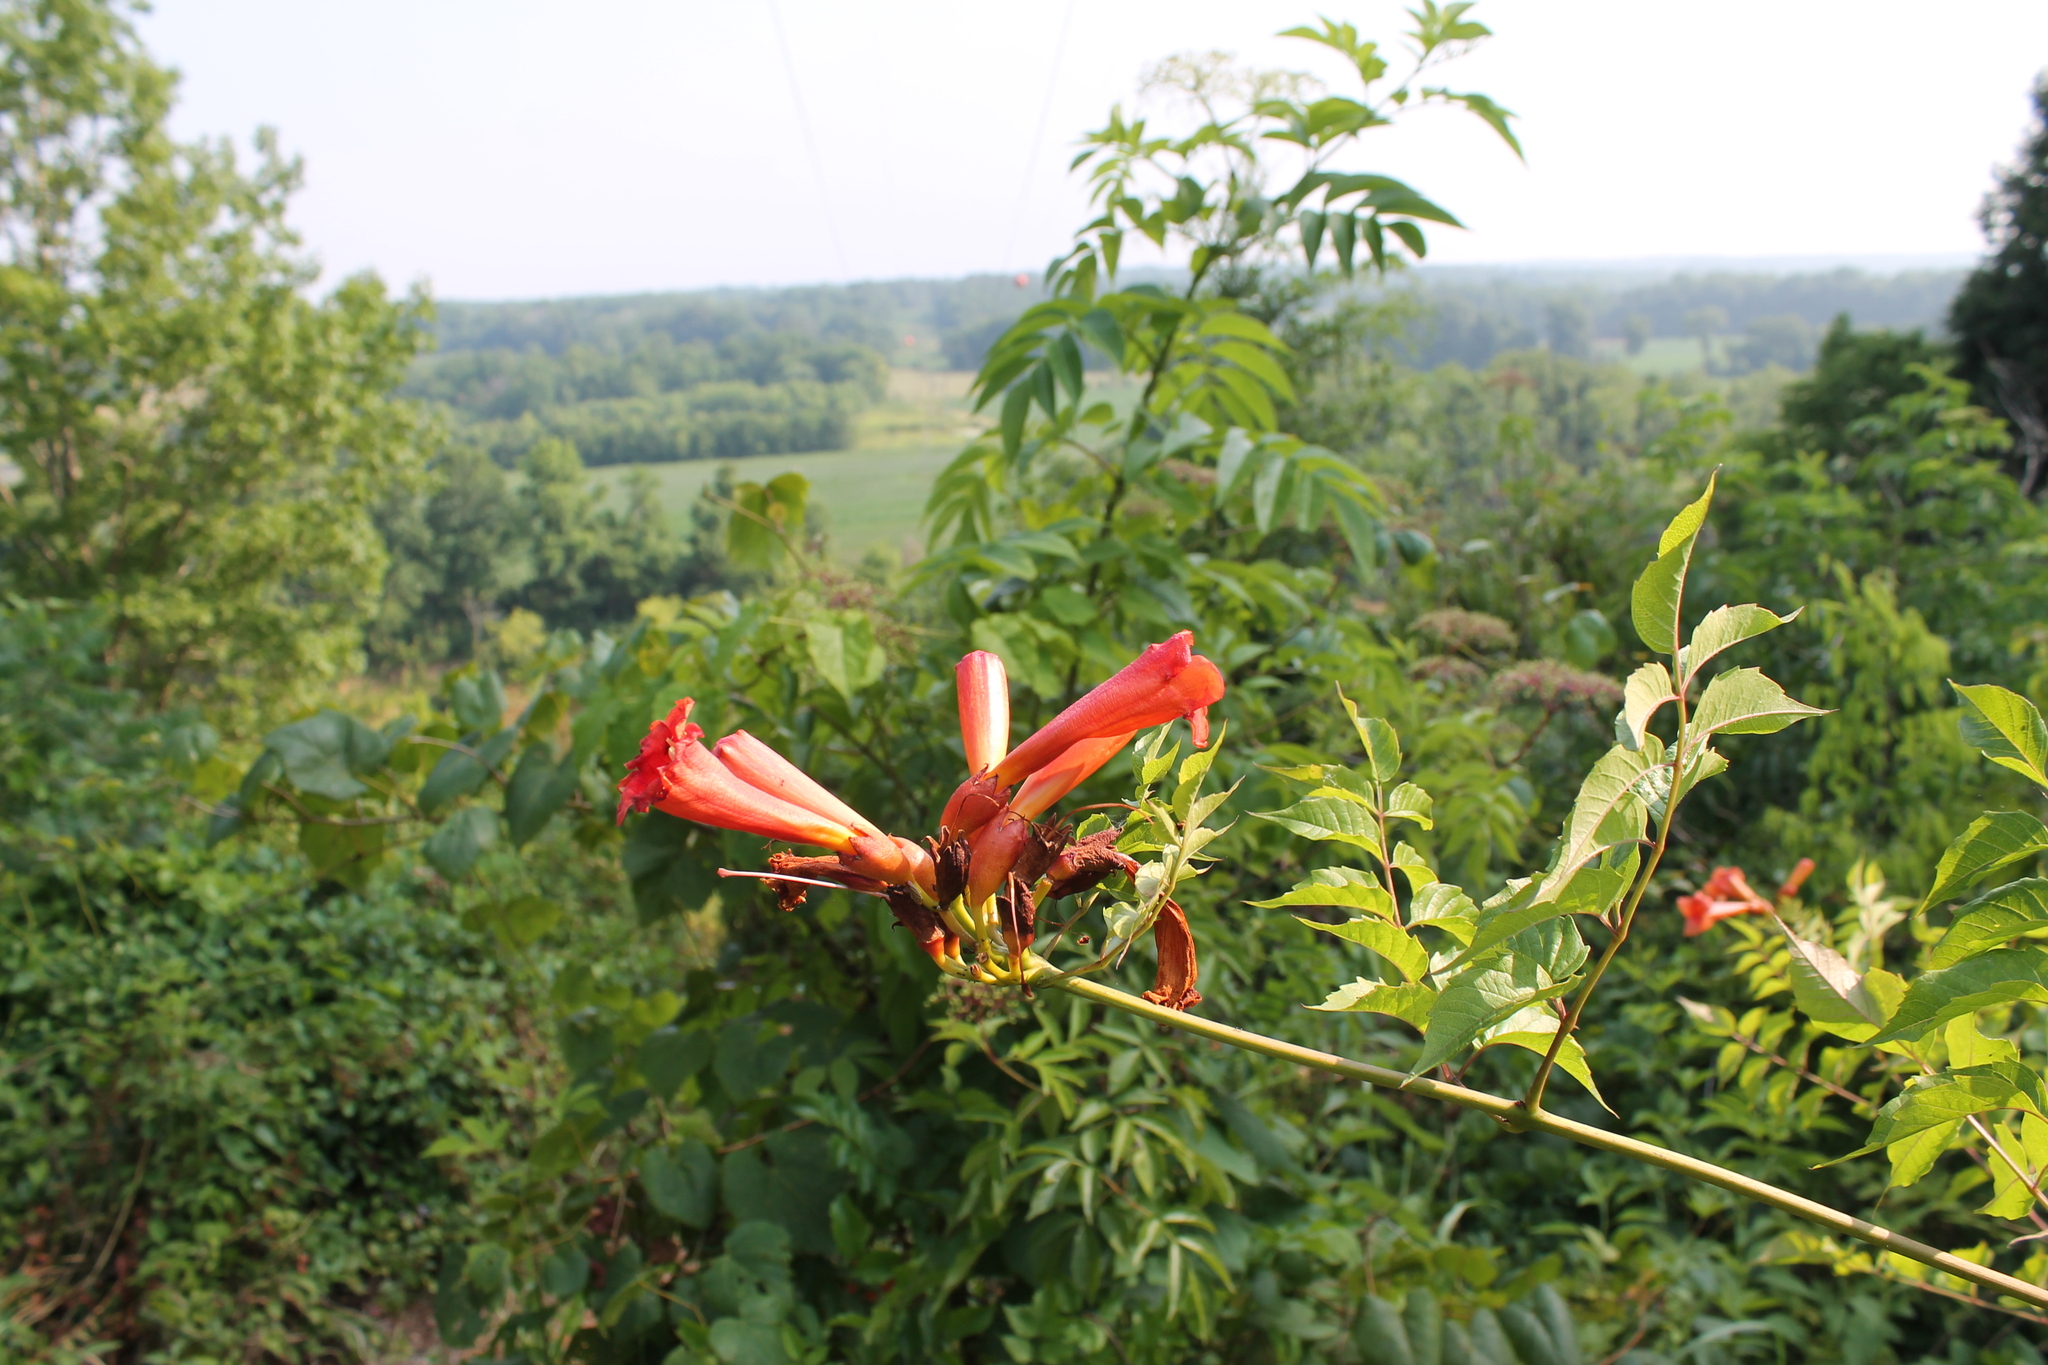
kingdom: Plantae
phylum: Tracheophyta
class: Magnoliopsida
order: Lamiales
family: Bignoniaceae
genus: Campsis
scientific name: Campsis radicans
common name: Trumpet-creeper
